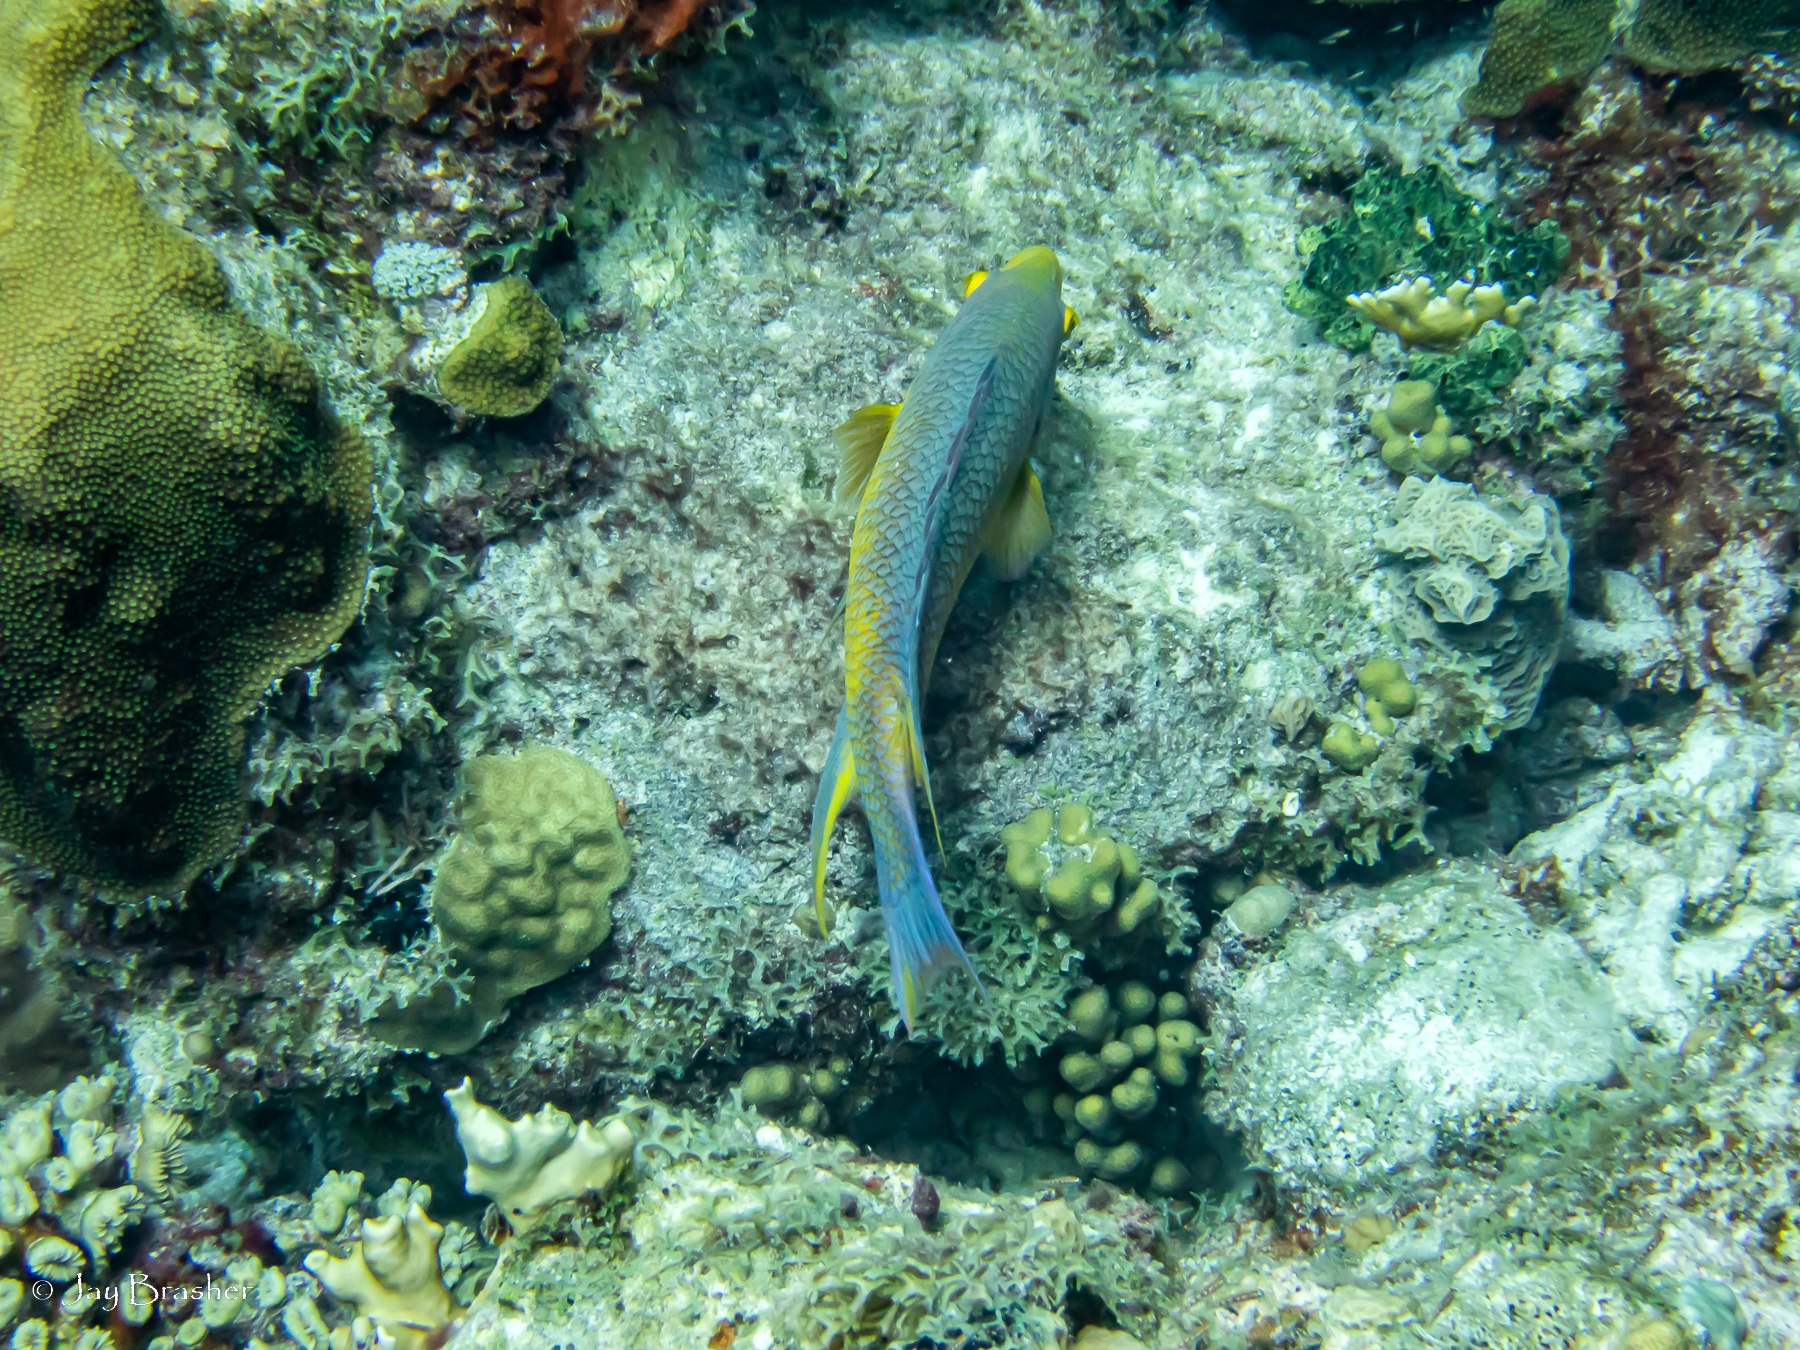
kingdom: Animalia
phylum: Chordata
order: Perciformes
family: Labridae
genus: Bodianus
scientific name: Bodianus rufus
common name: Spanish hogfish
